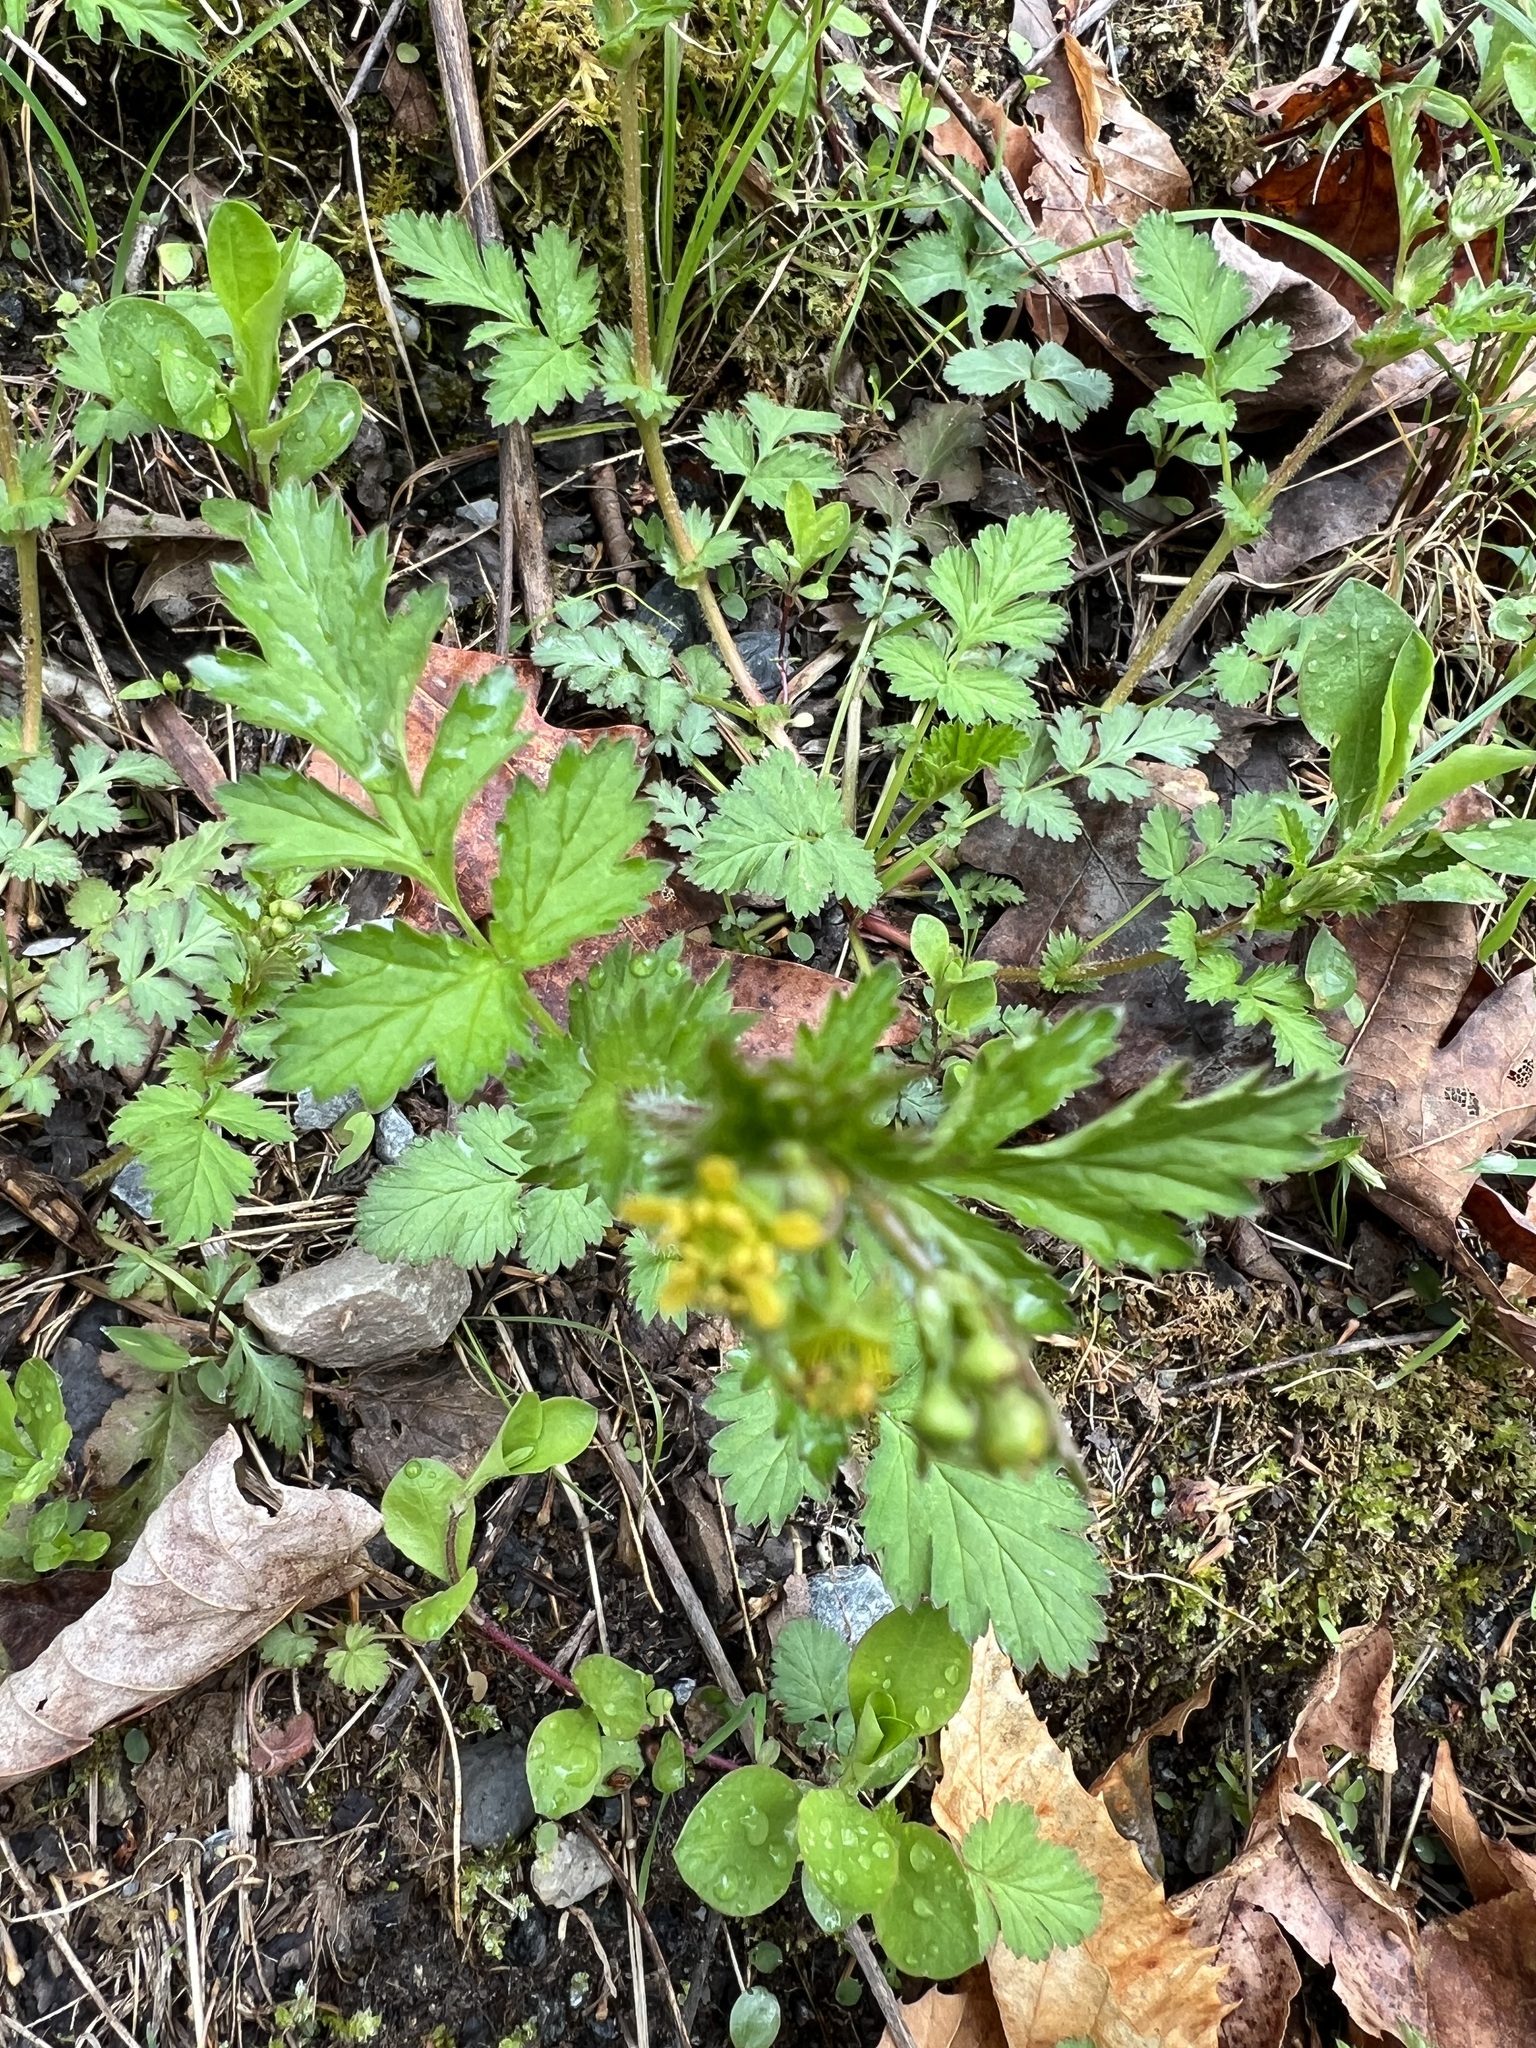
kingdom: Plantae
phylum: Tracheophyta
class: Magnoliopsida
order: Rosales
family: Rosaceae
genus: Geum
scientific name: Geum vernum
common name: Spring avens
